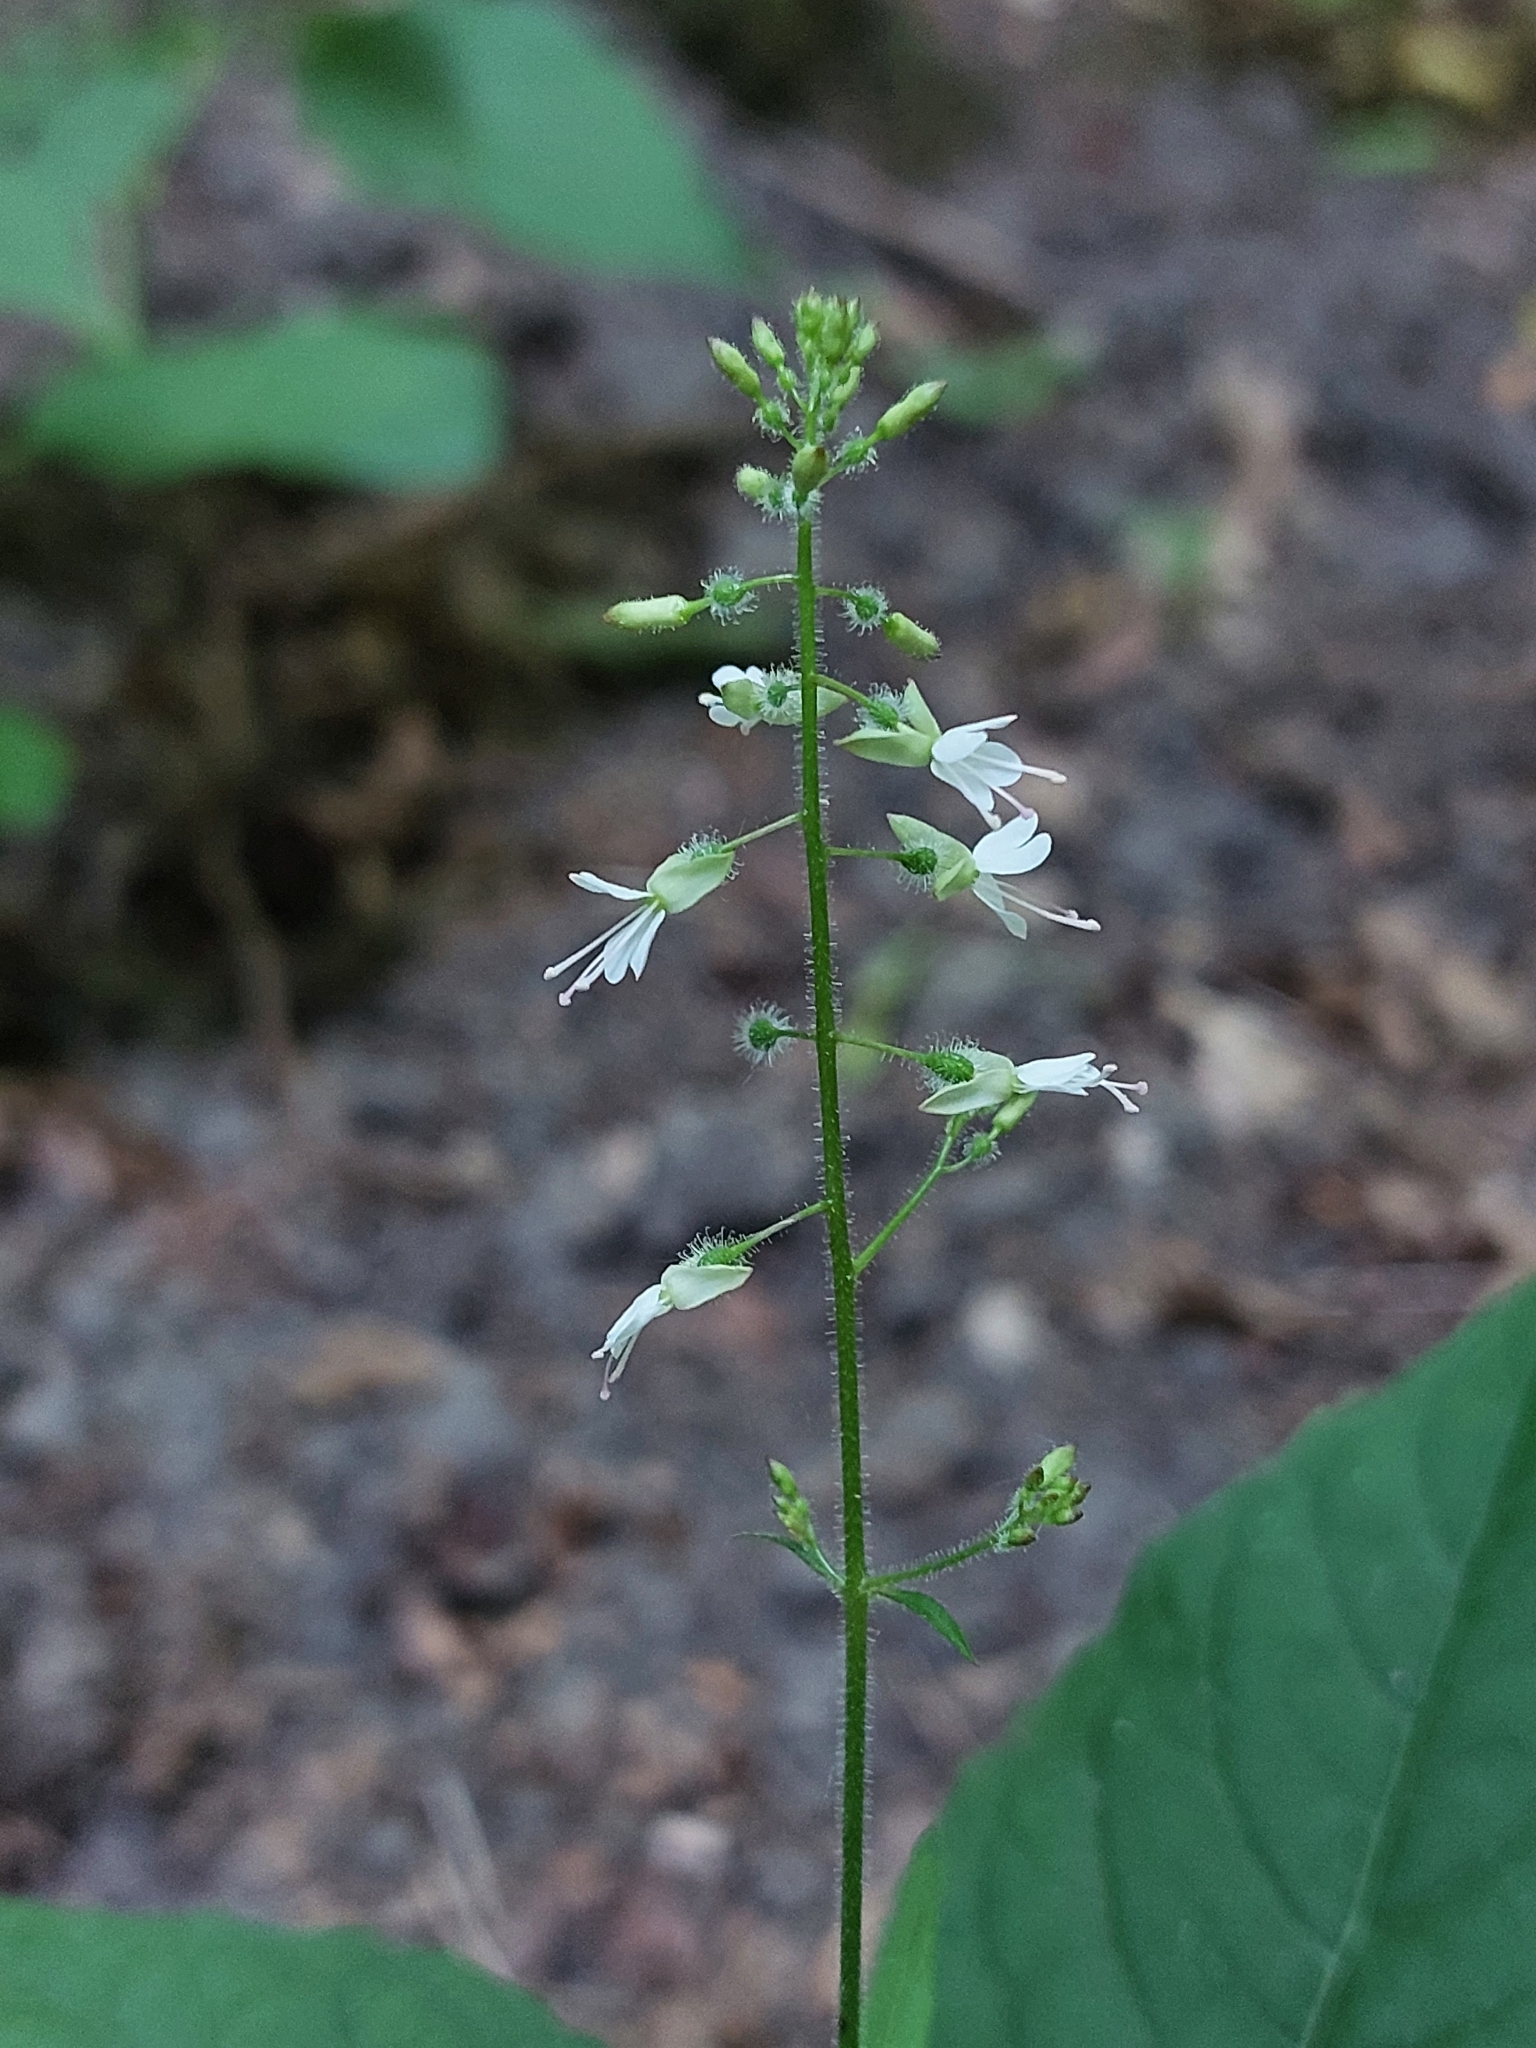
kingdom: Plantae
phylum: Tracheophyta
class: Magnoliopsida
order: Myrtales
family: Onagraceae
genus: Circaea
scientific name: Circaea lutetiana
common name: Enchanter's-nightshade
